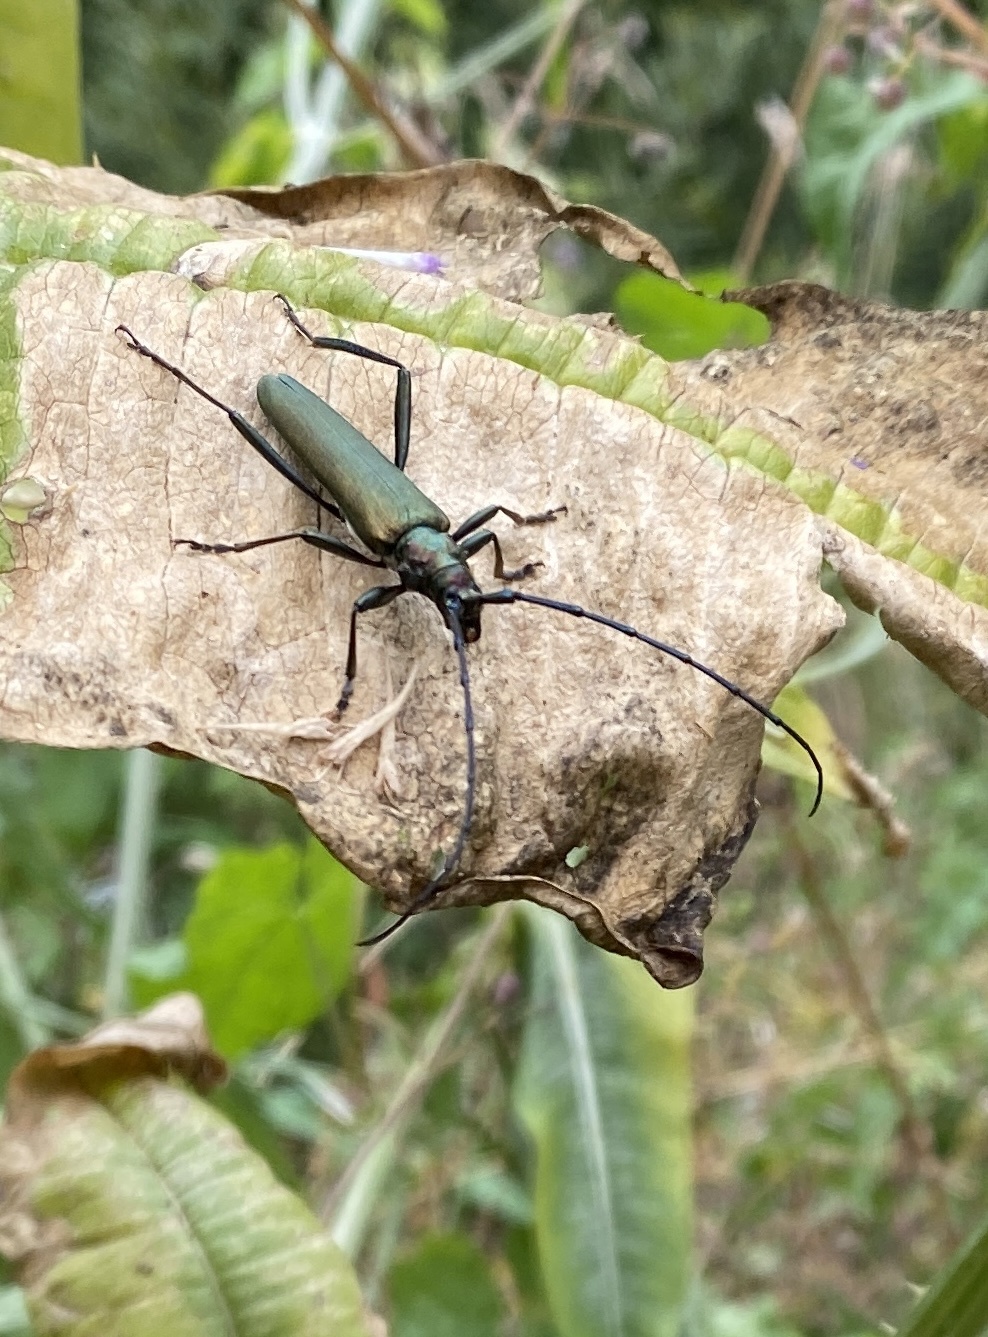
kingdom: Animalia
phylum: Arthropoda
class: Insecta
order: Coleoptera
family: Cerambycidae
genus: Aromia
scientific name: Aromia moschata
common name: Musk beetle
